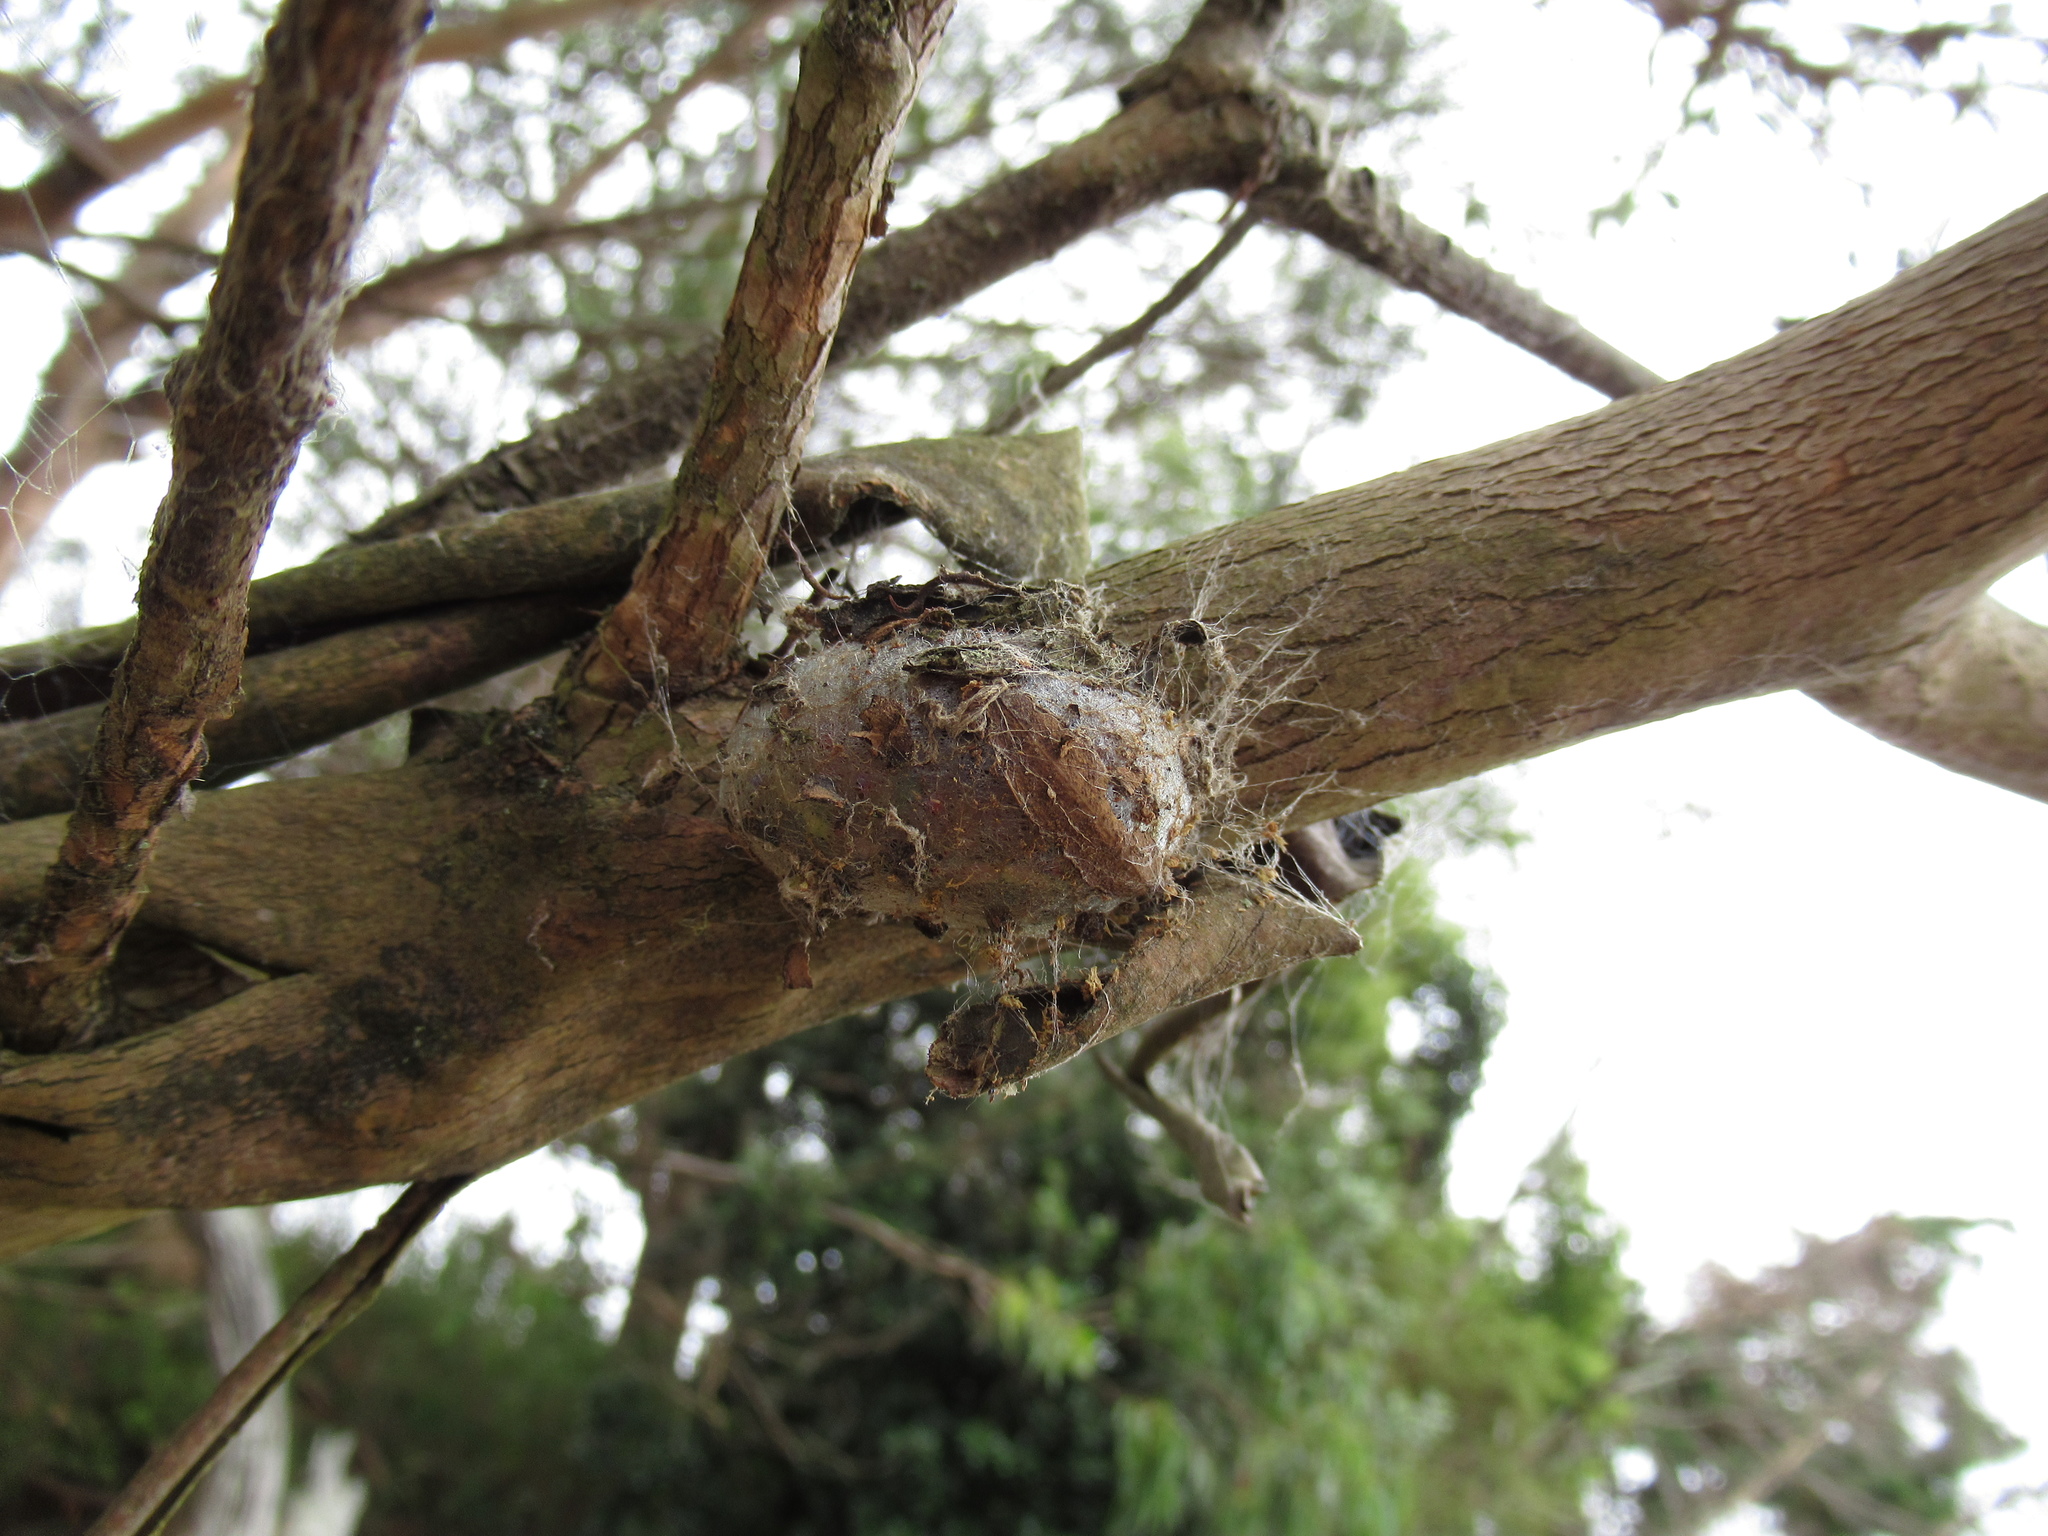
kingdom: Animalia
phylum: Arthropoda
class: Insecta
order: Lepidoptera
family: Saturniidae
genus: Opodiphthera
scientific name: Opodiphthera
